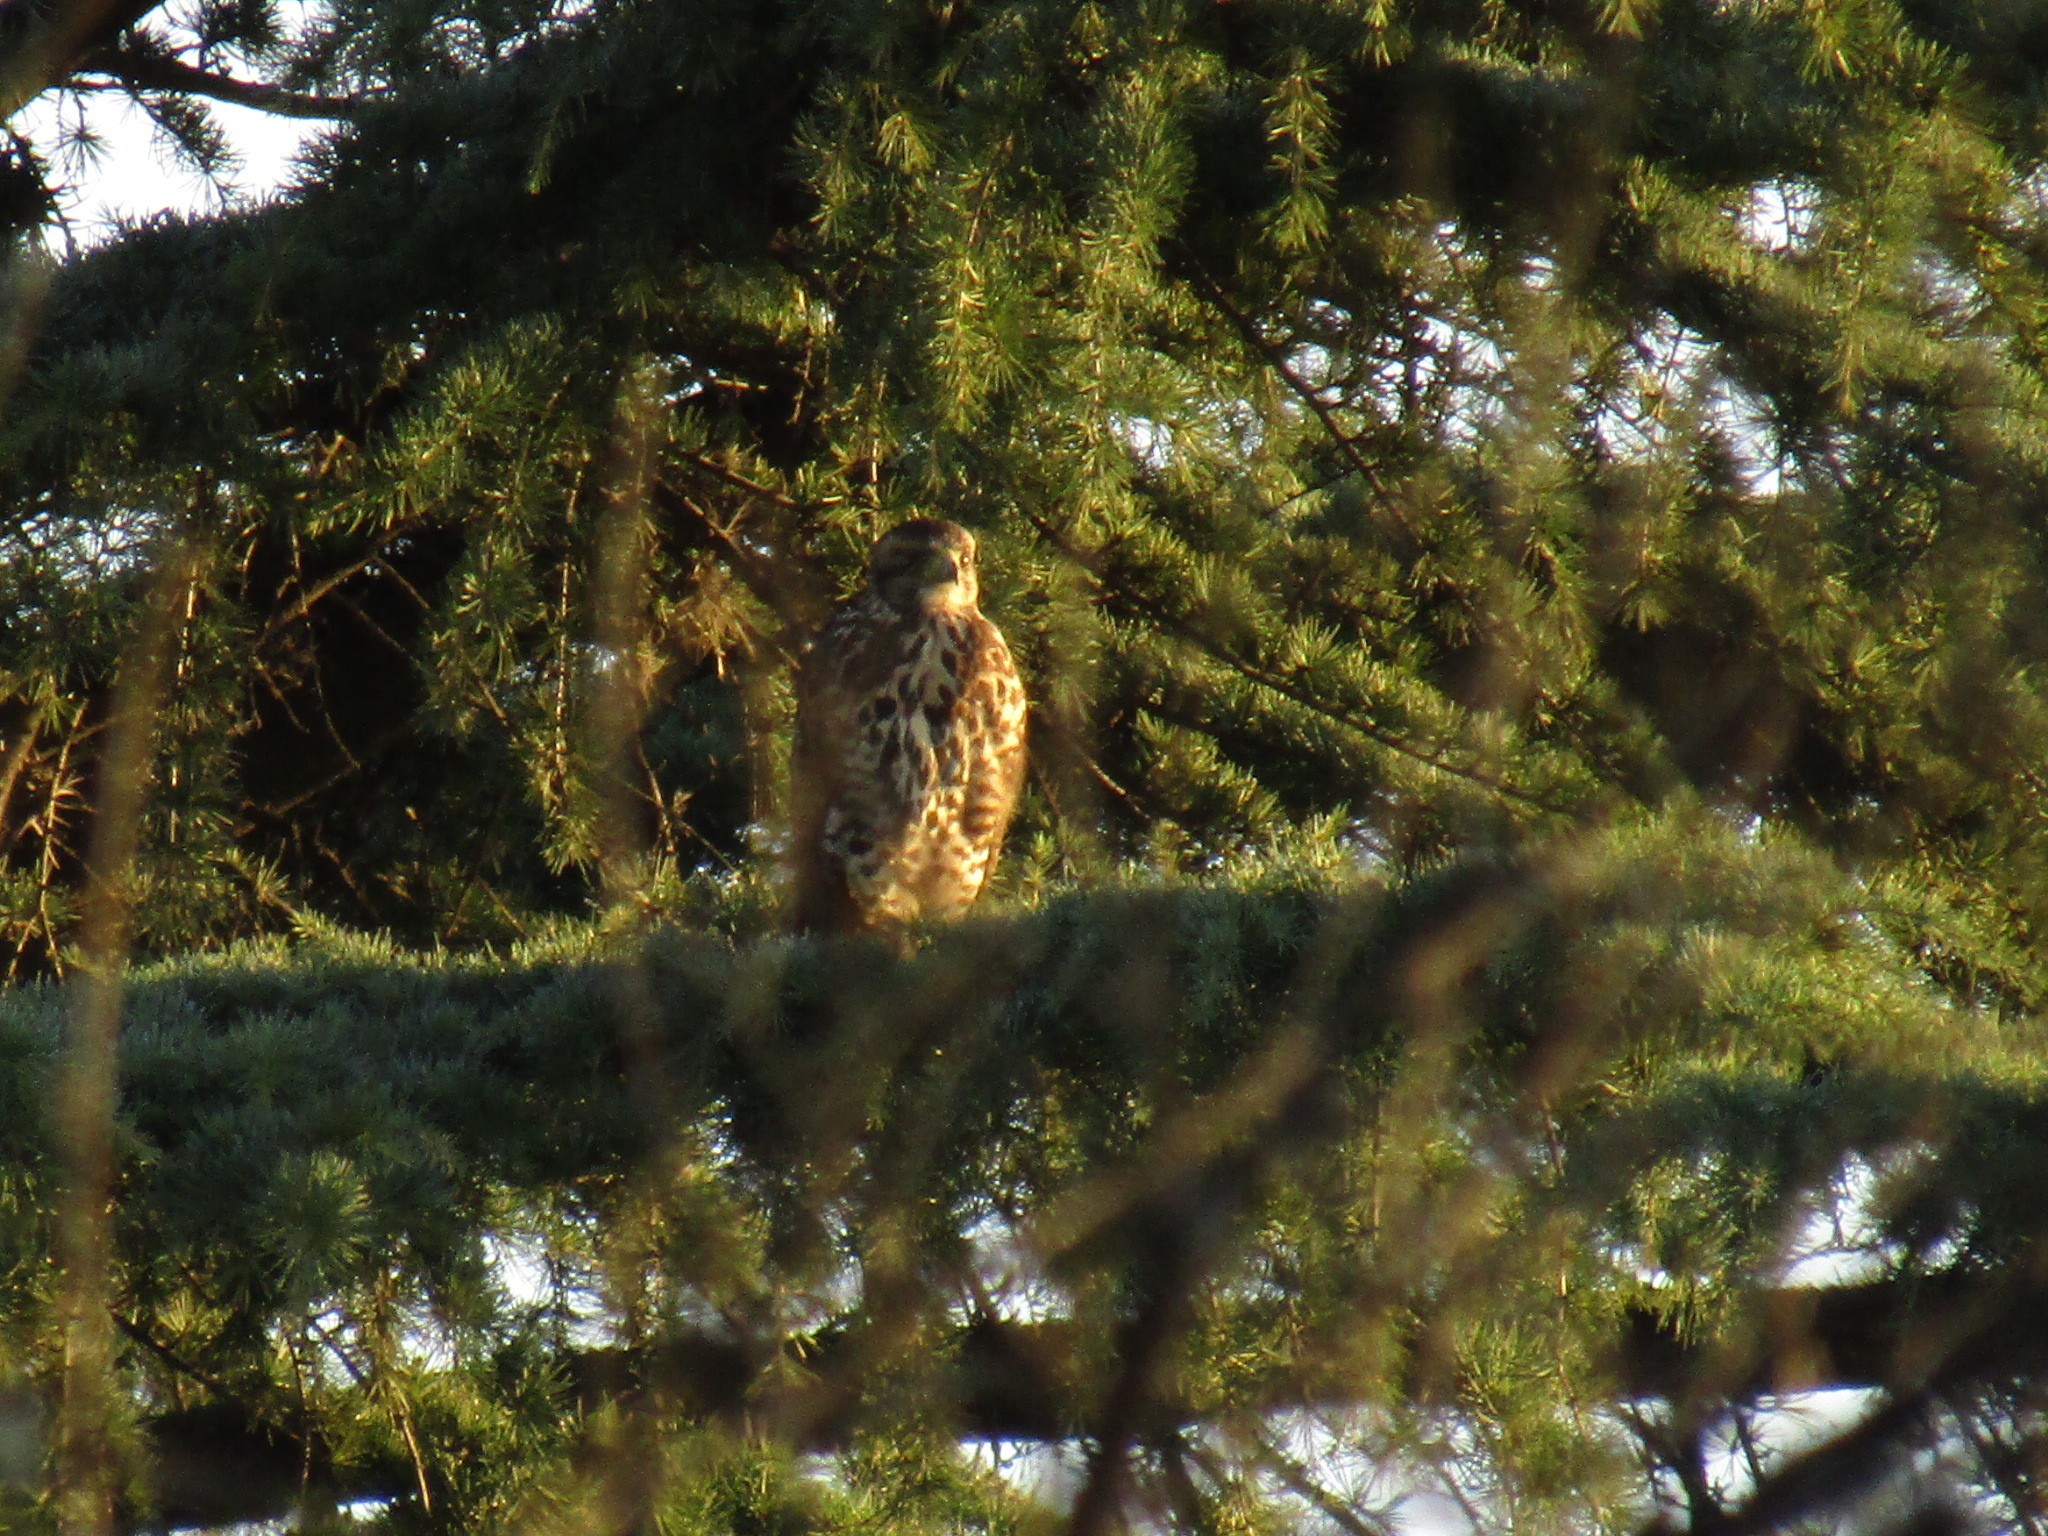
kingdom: Animalia
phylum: Chordata
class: Aves
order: Accipitriformes
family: Accipitridae
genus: Parabuteo
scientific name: Parabuteo unicinctus
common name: Harris's hawk
